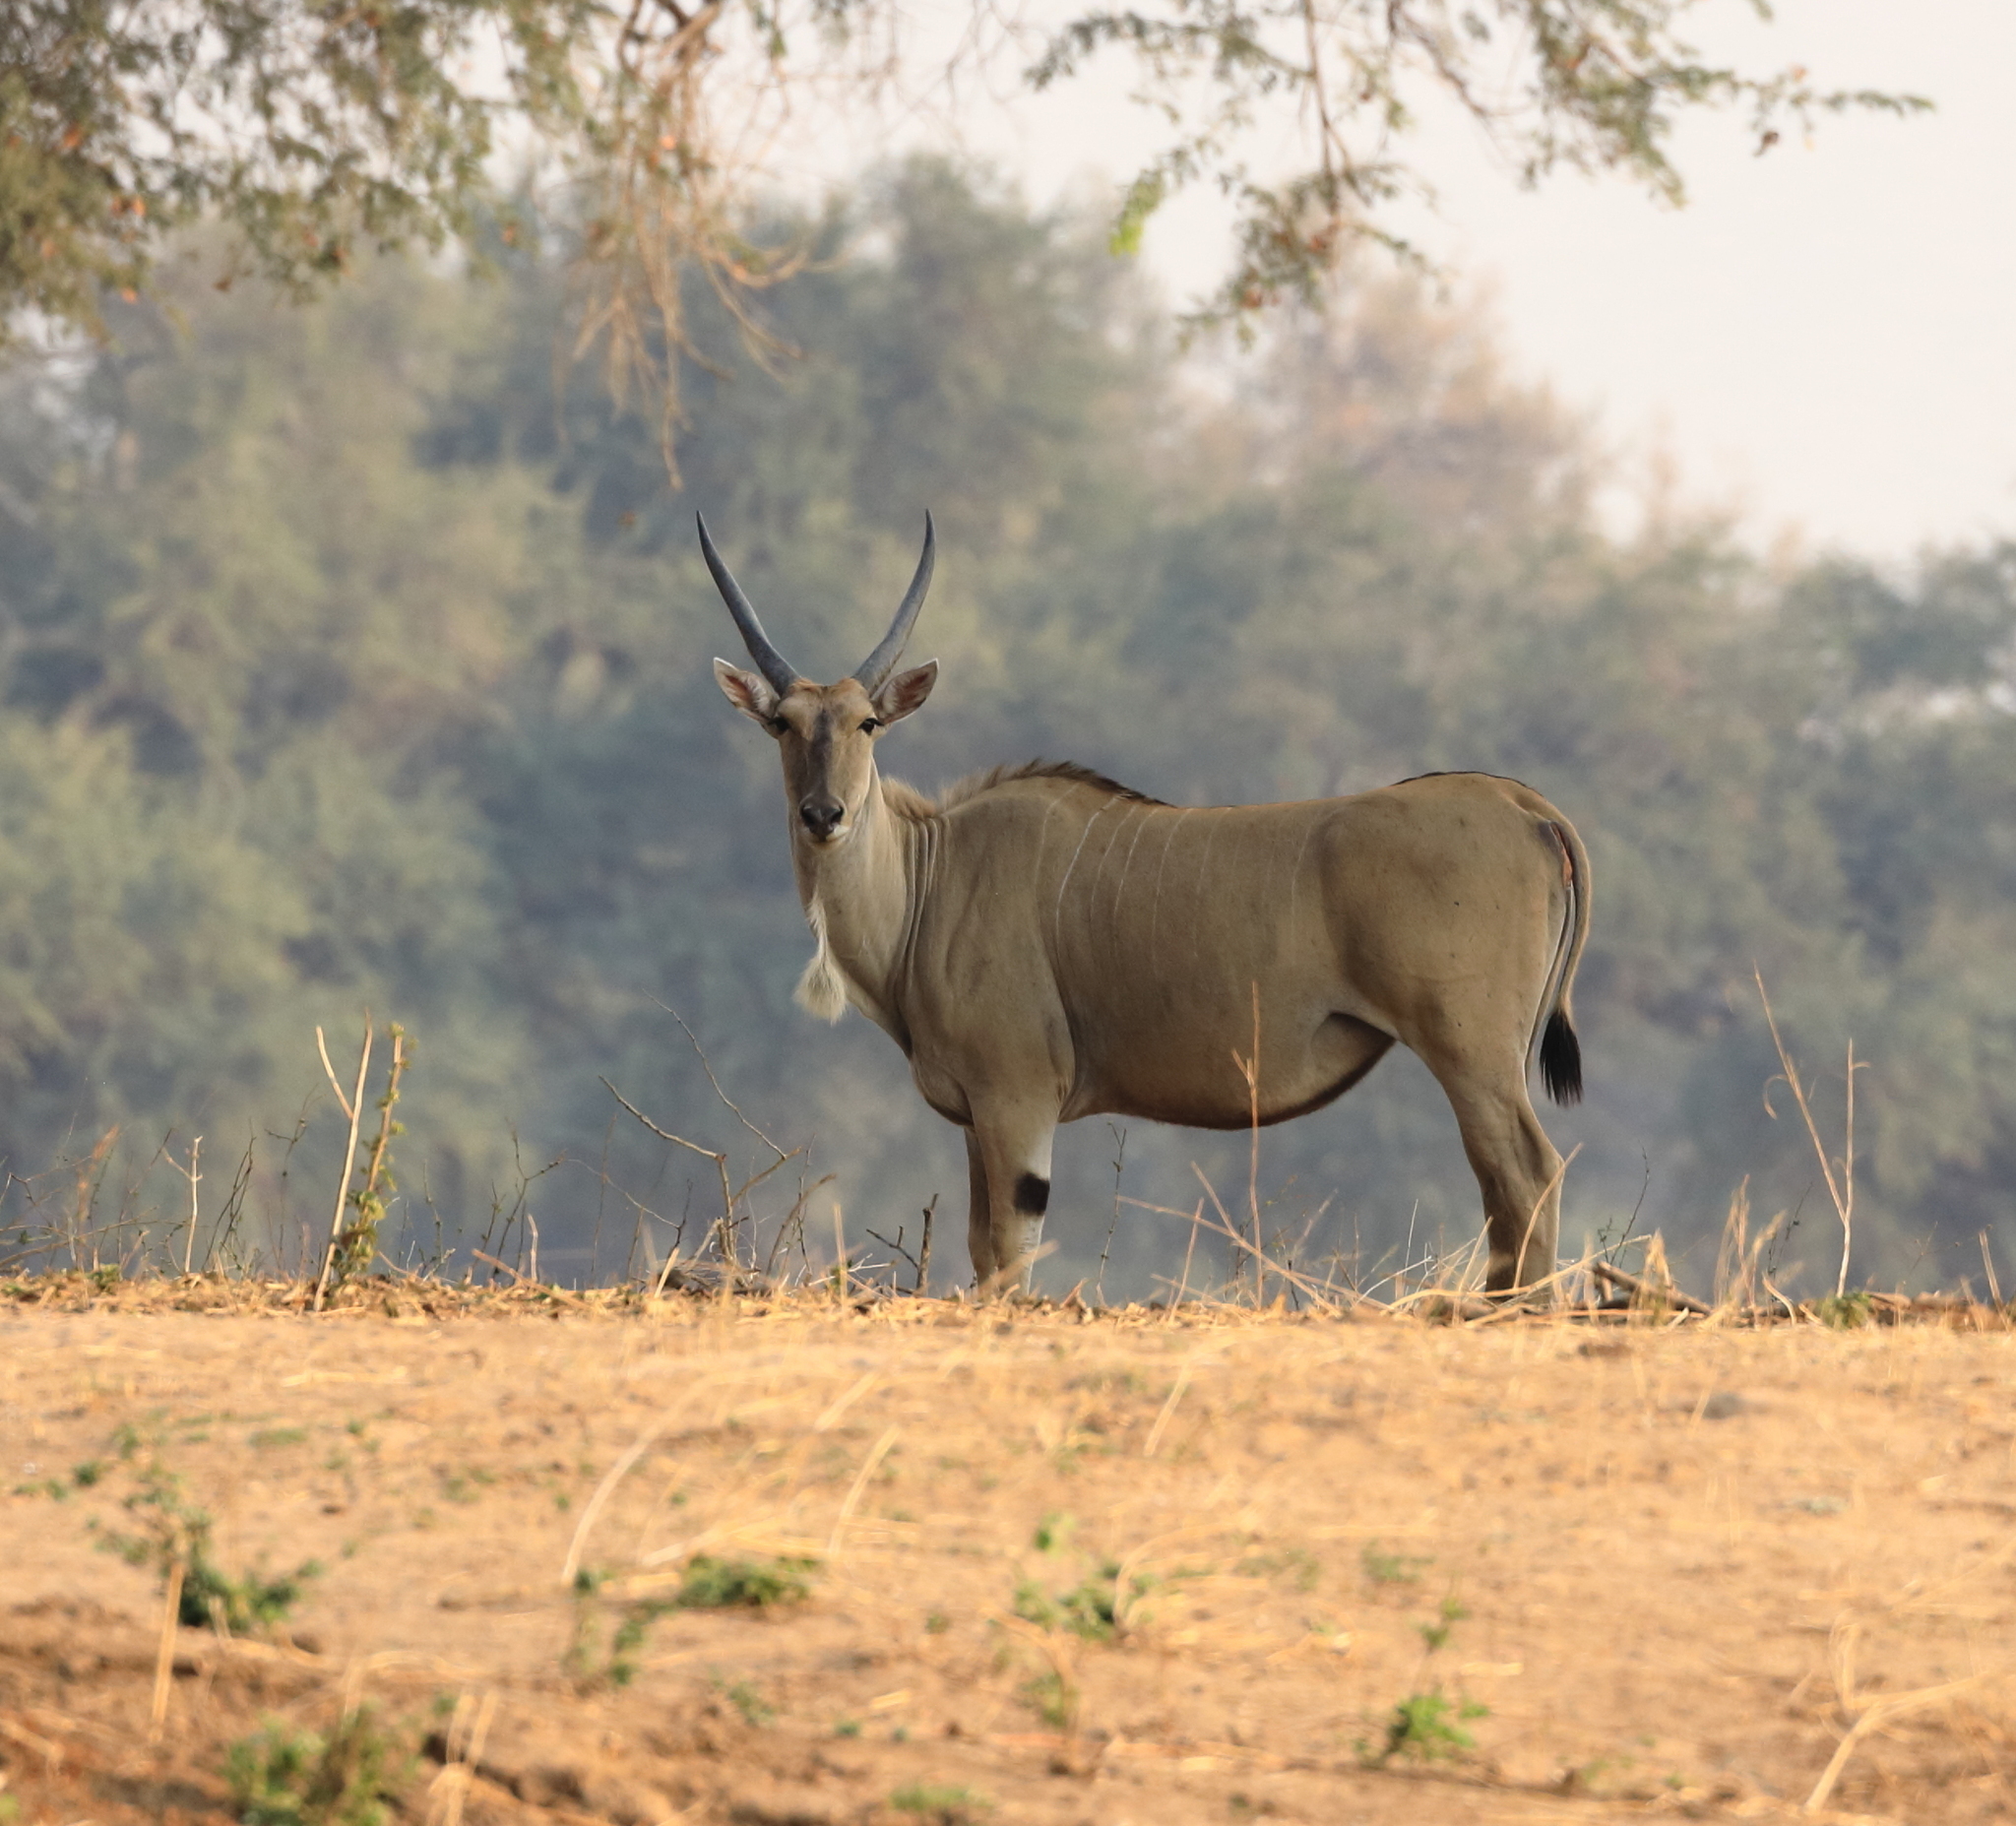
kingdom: Animalia
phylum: Chordata
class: Mammalia
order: Artiodactyla
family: Bovidae
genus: Taurotragus
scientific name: Taurotragus oryx
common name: Common eland
